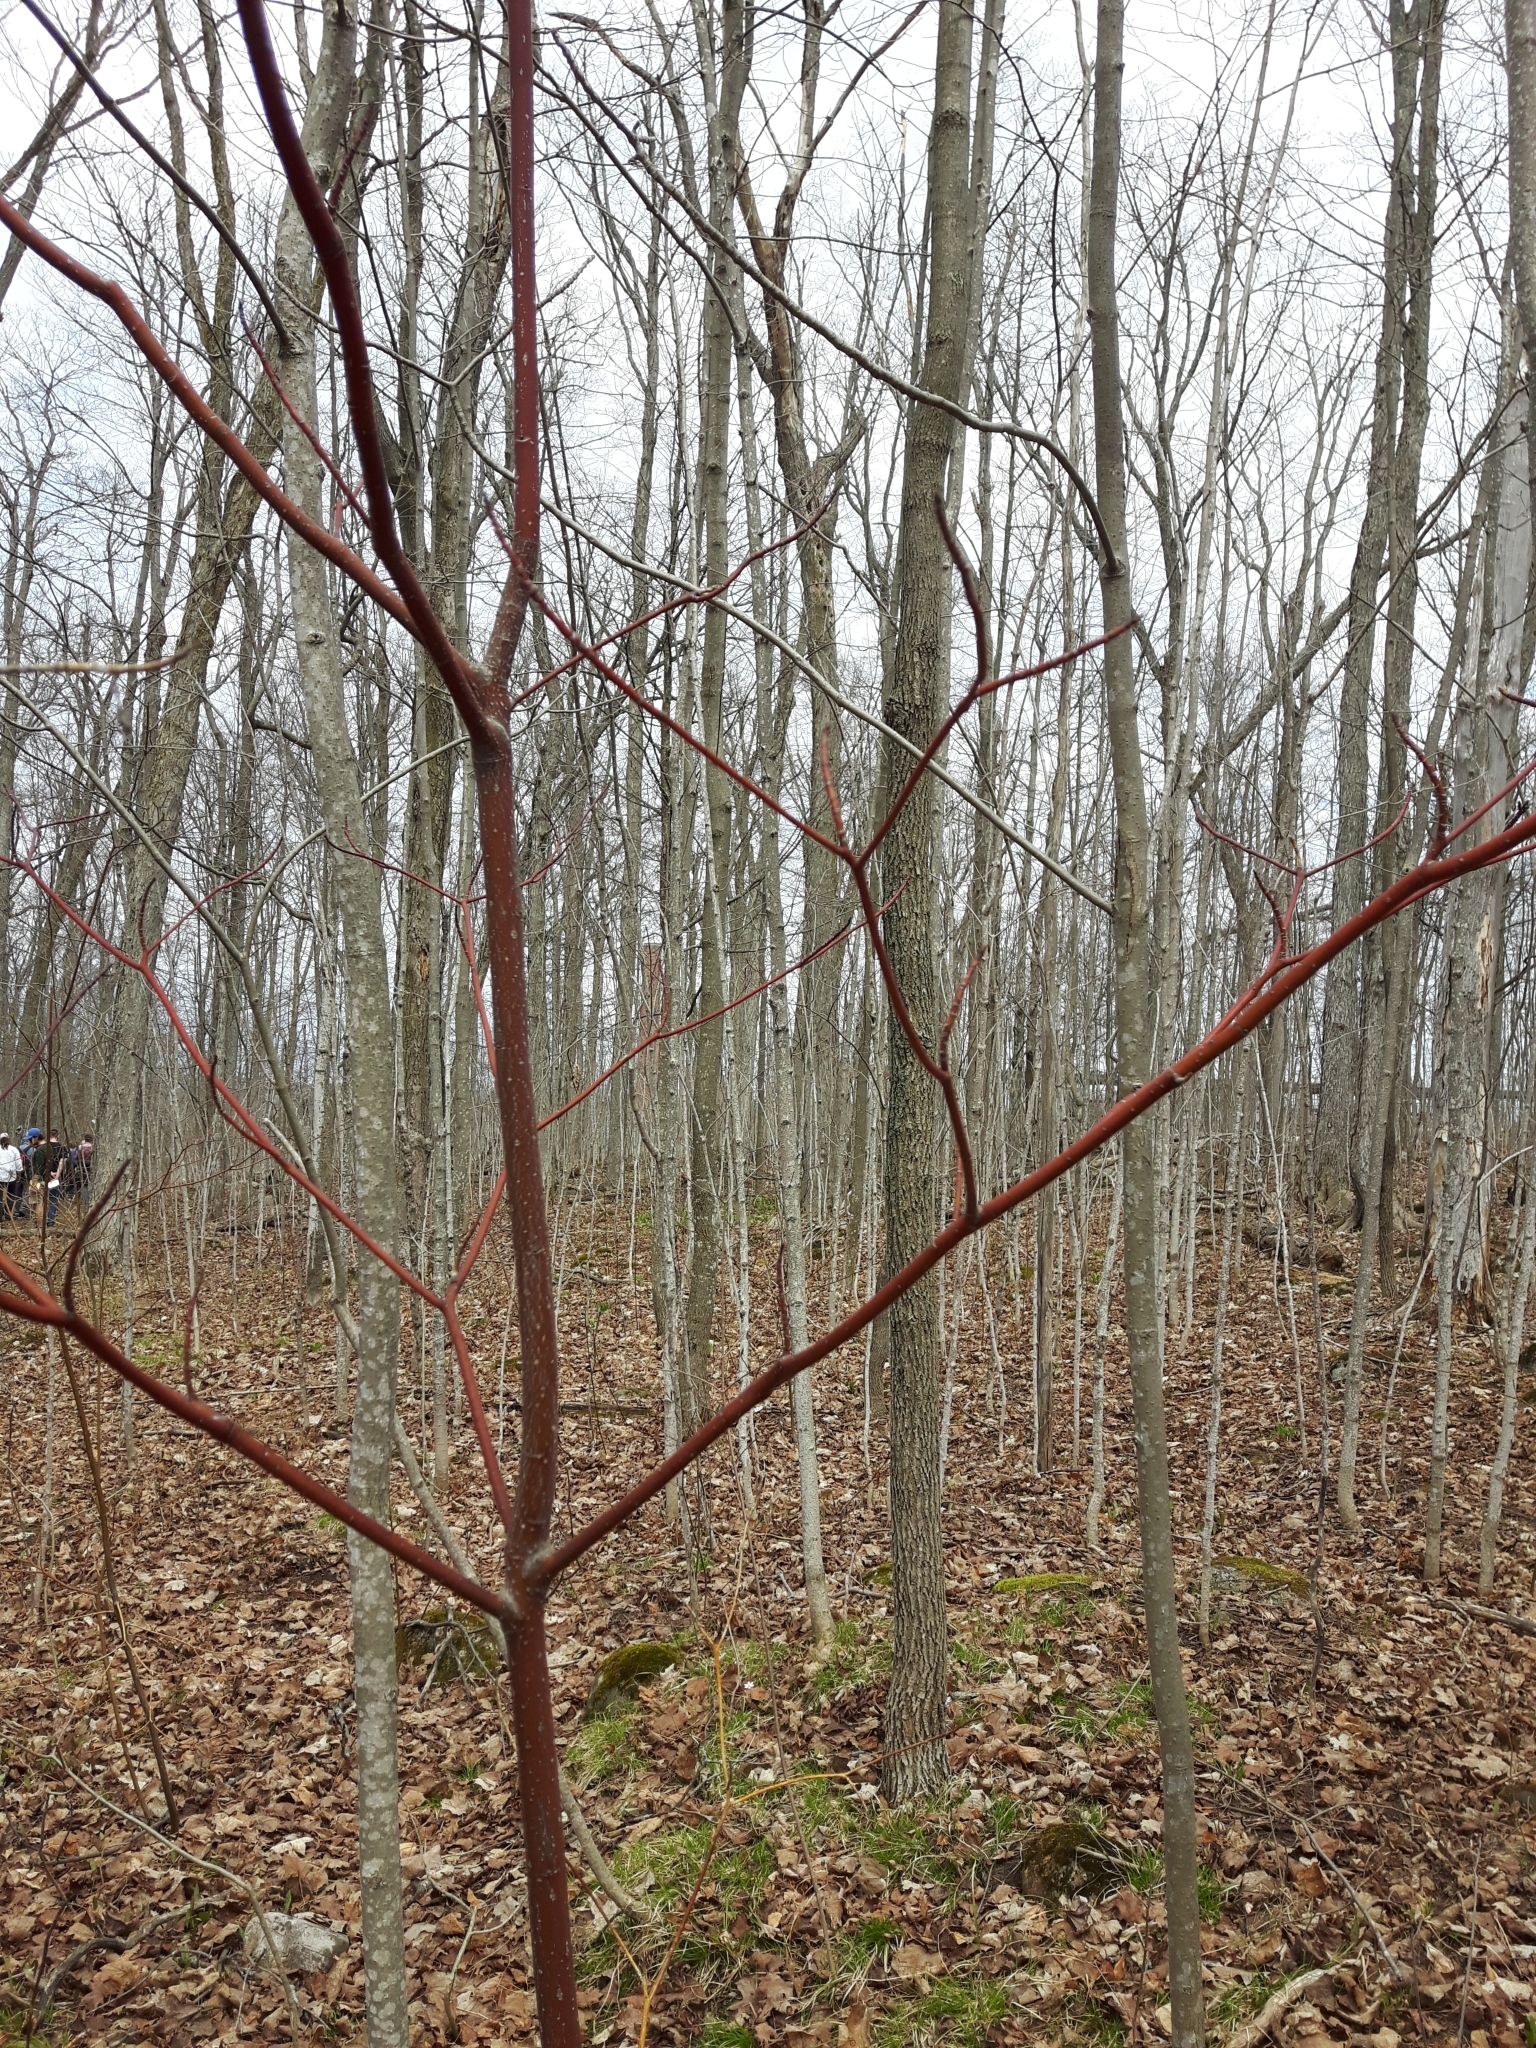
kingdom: Plantae
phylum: Tracheophyta
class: Magnoliopsida
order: Cornales
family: Cornaceae
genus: Cornus
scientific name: Cornus alternifolia
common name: Pagoda dogwood
